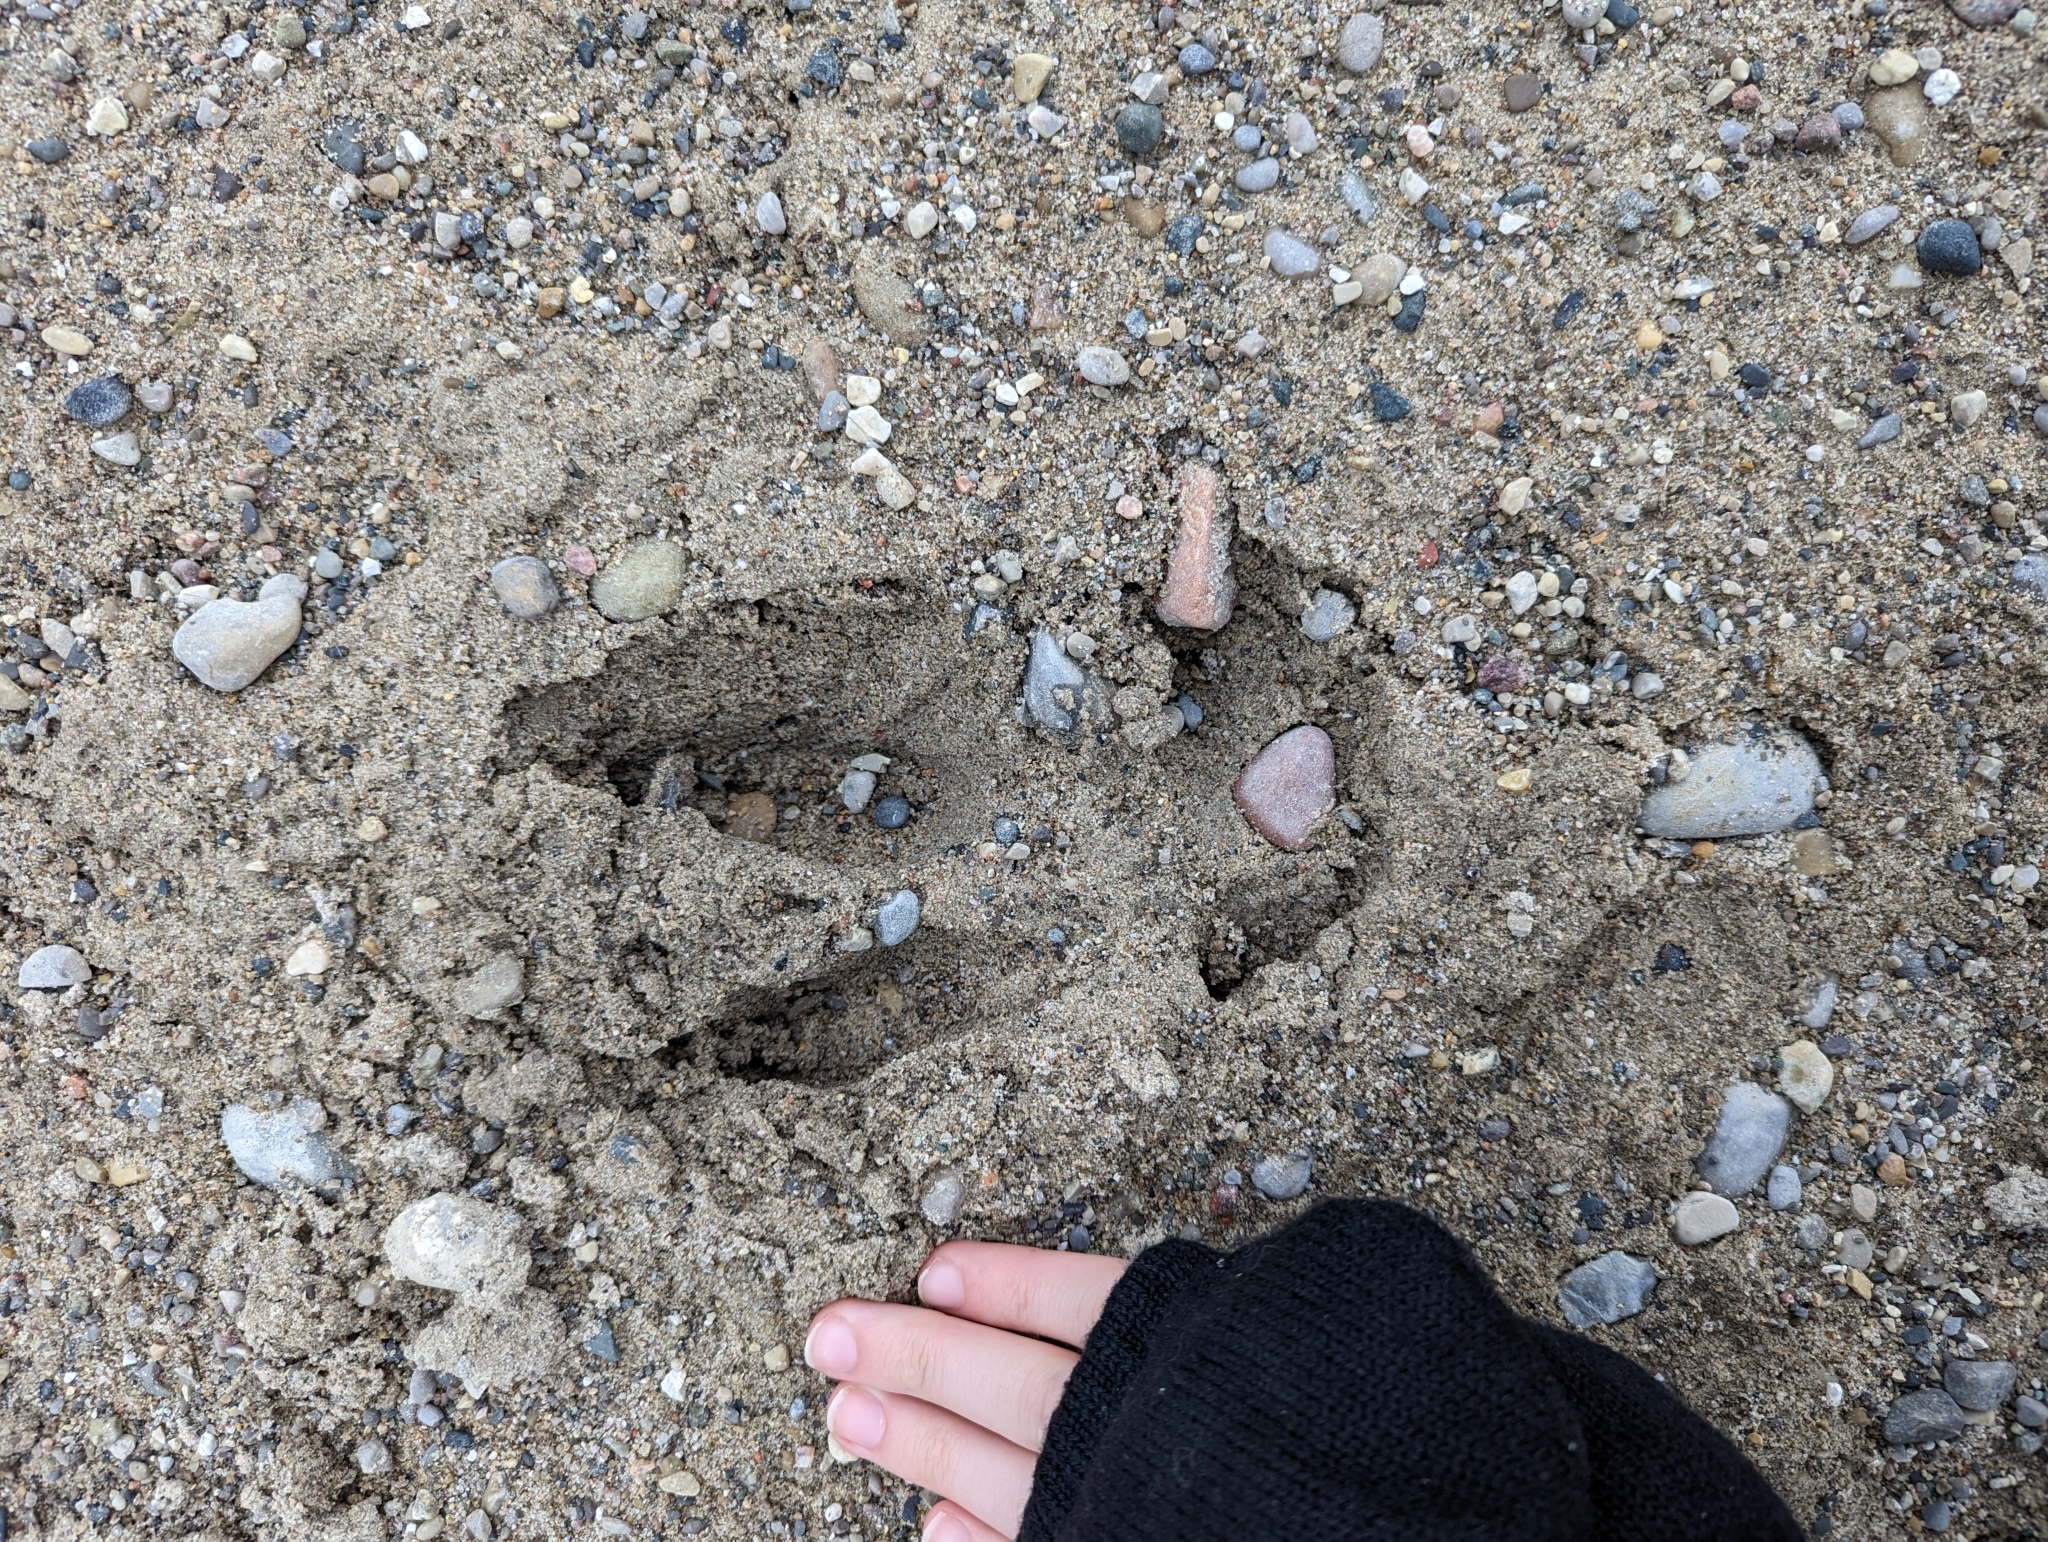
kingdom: Animalia
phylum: Chordata
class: Mammalia
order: Artiodactyla
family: Cervidae
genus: Odocoileus
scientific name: Odocoileus virginianus
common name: White-tailed deer
